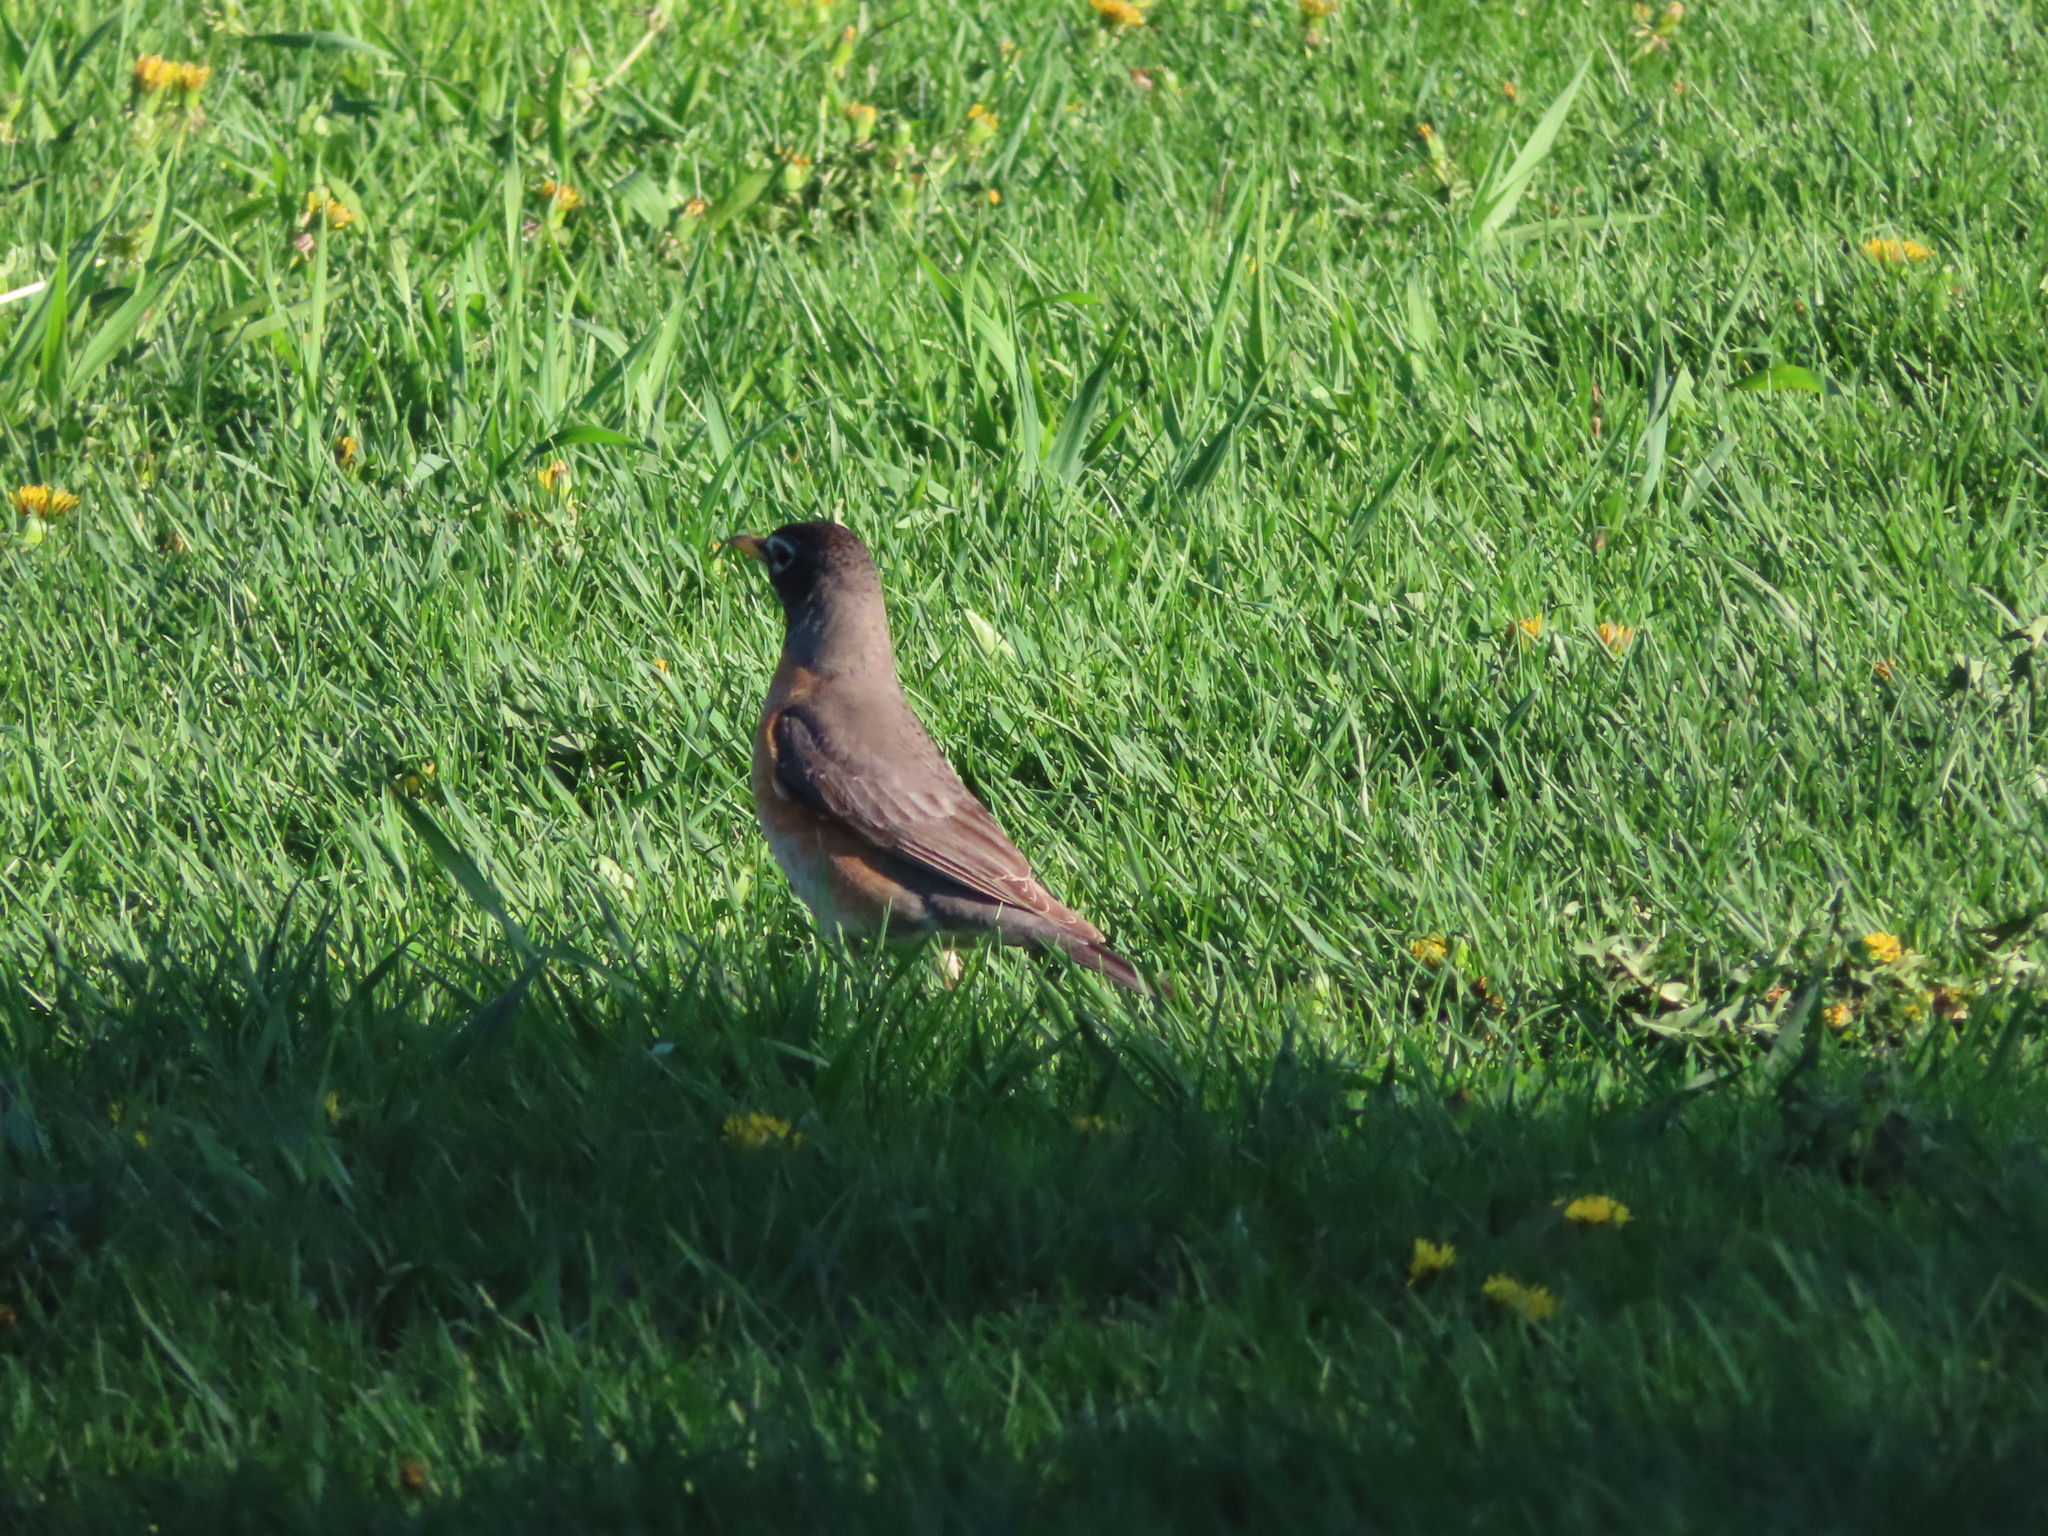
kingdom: Animalia
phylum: Chordata
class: Aves
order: Passeriformes
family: Turdidae
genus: Turdus
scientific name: Turdus migratorius
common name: American robin
